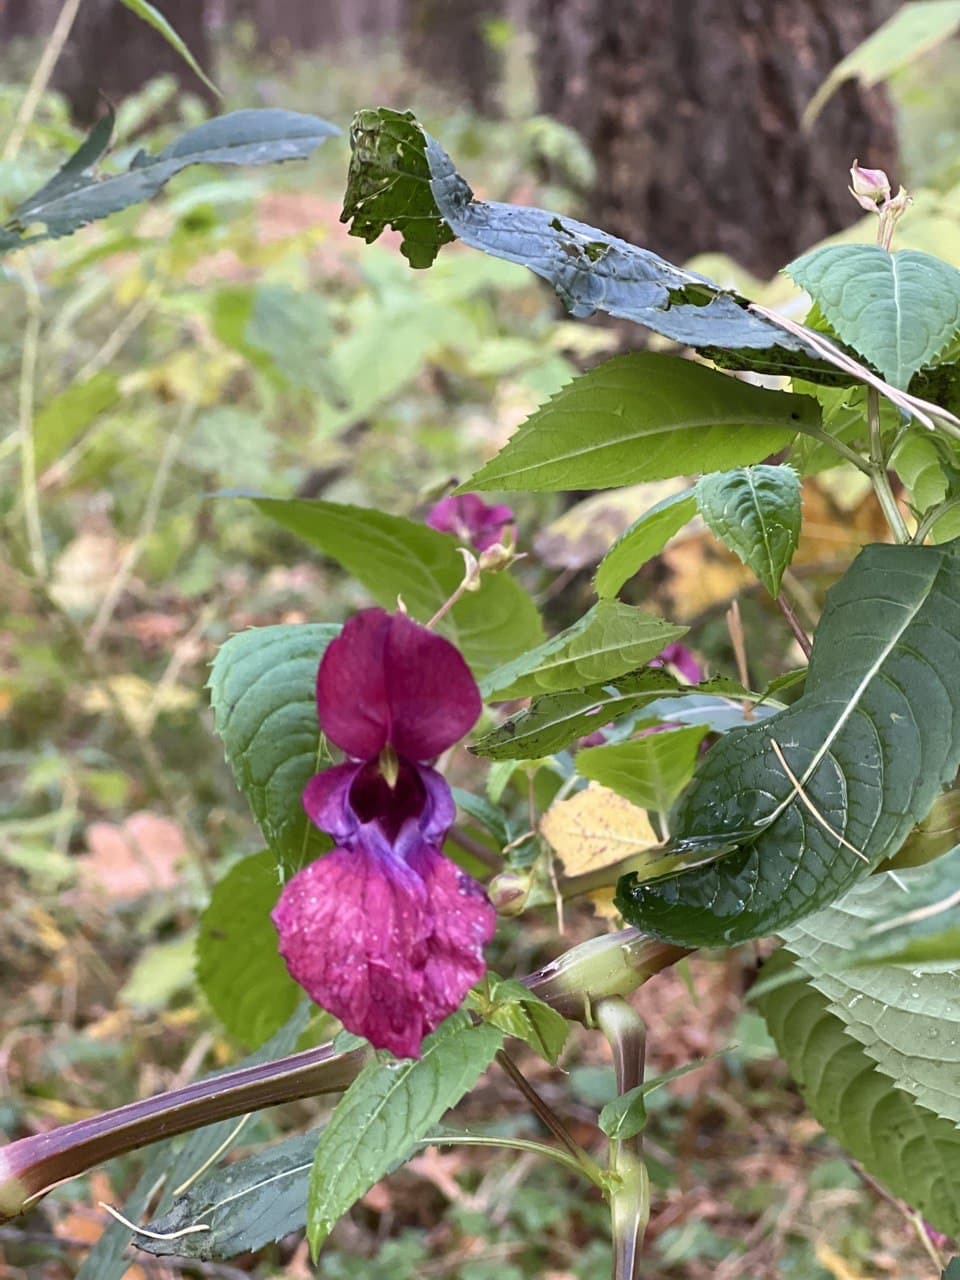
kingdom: Plantae
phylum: Tracheophyta
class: Magnoliopsida
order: Ericales
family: Balsaminaceae
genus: Impatiens
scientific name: Impatiens glandulifera
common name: Himalayan balsam
